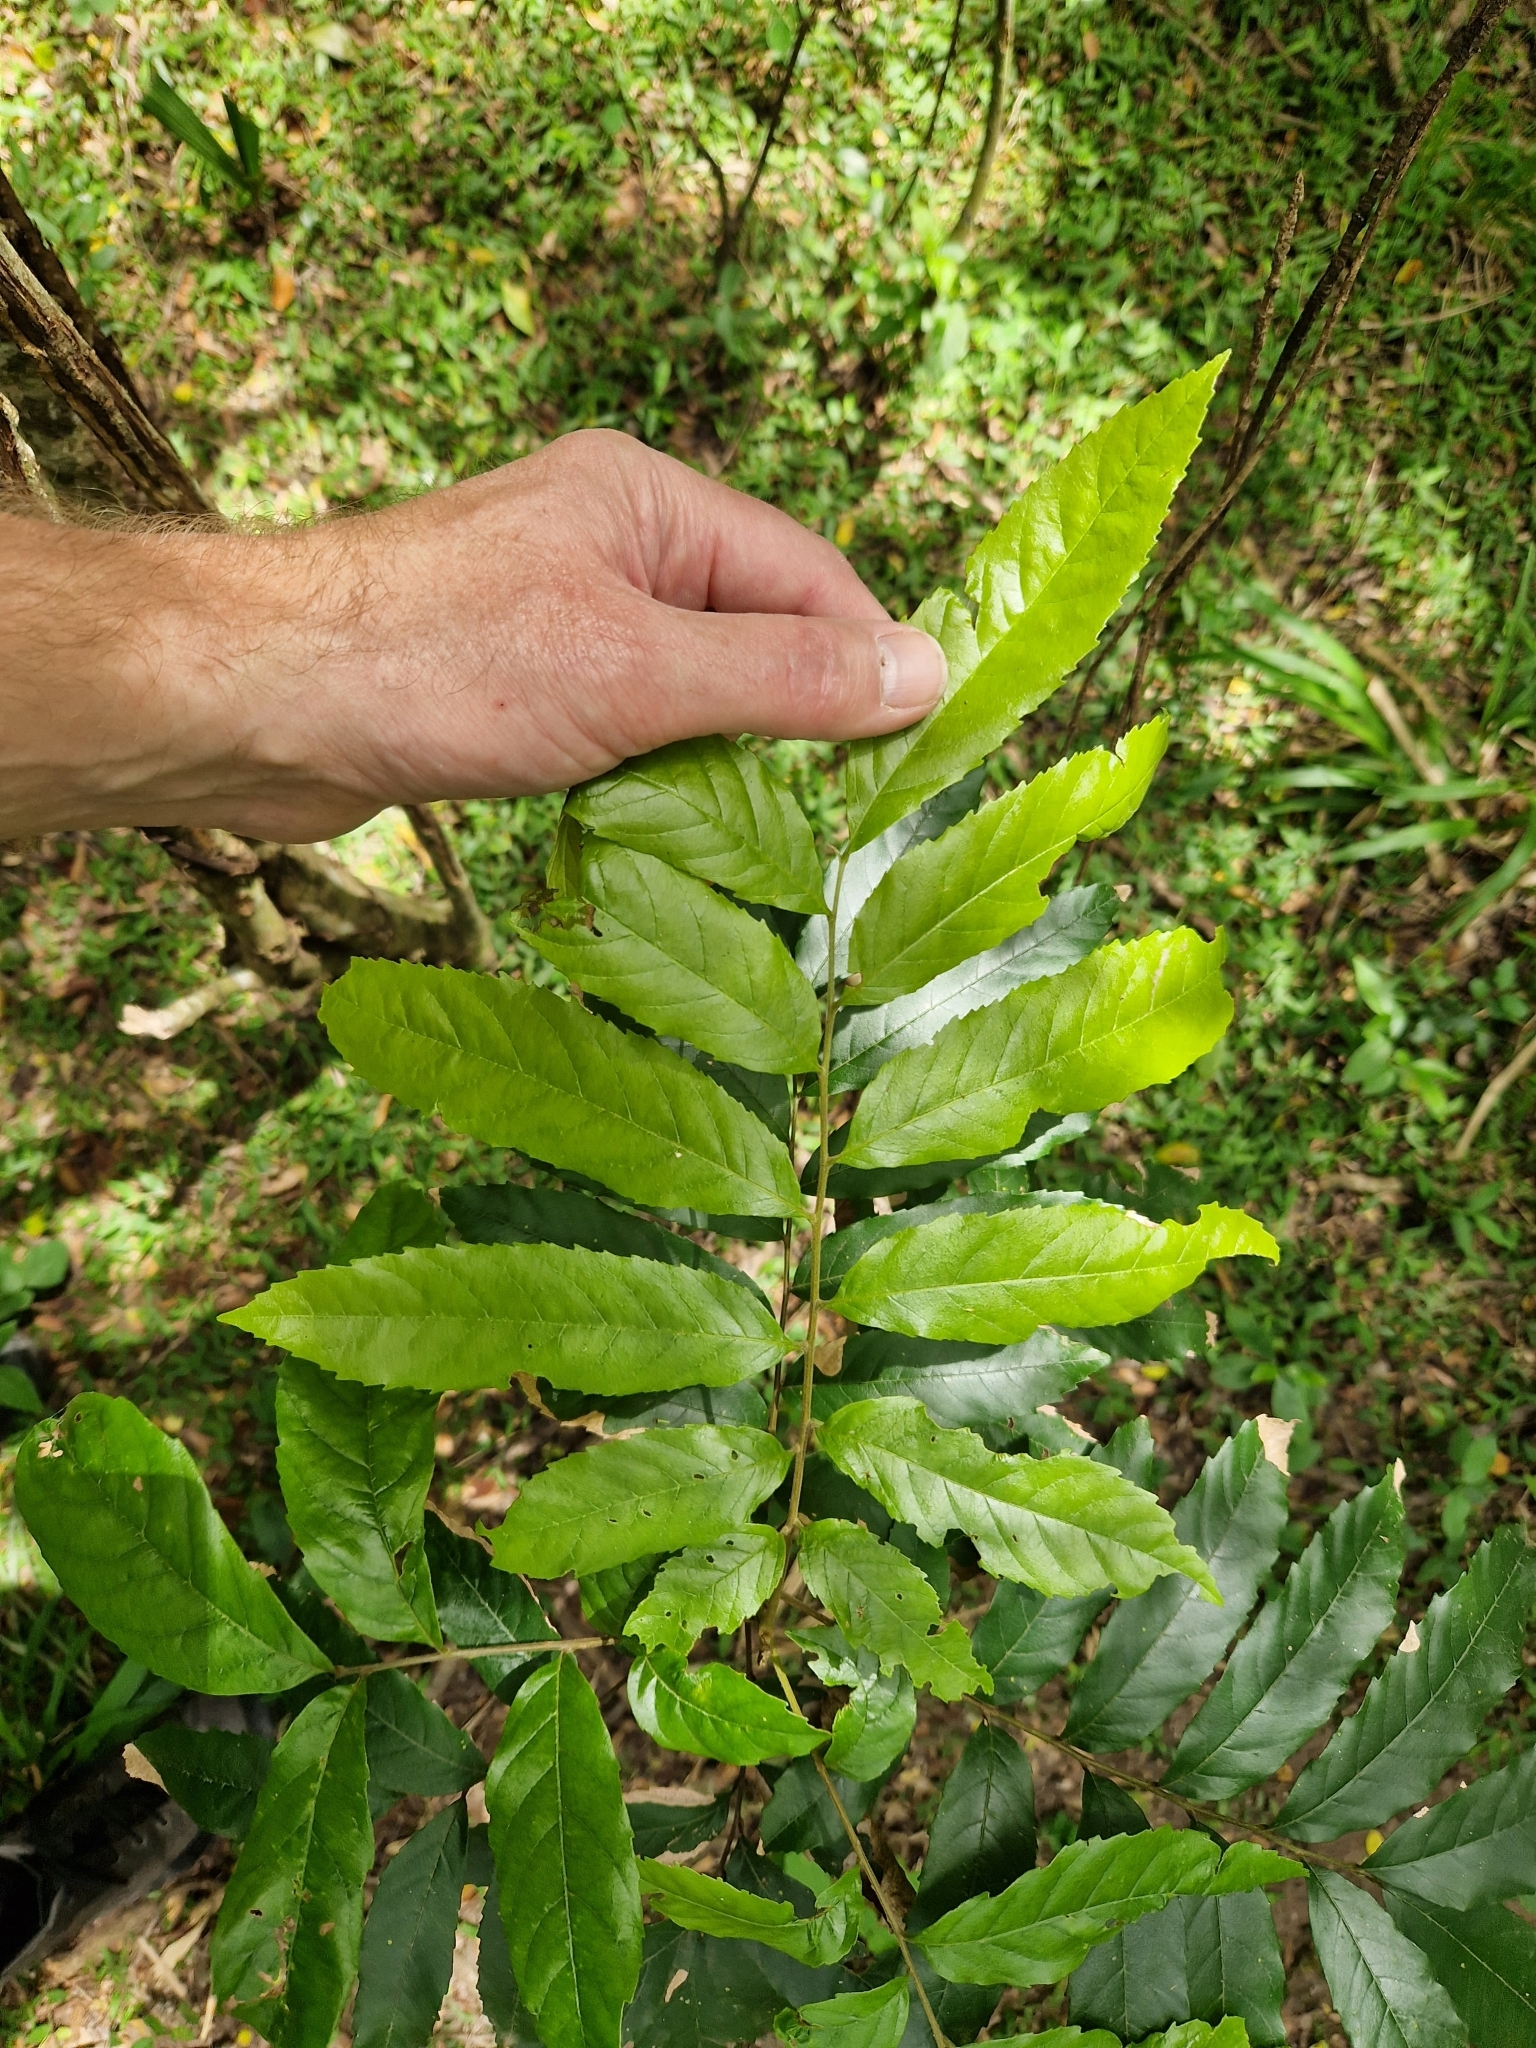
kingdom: Plantae
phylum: Tracheophyta
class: Magnoliopsida
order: Sapindales
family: Sapindaceae
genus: Cupania
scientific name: Cupania vernalis
